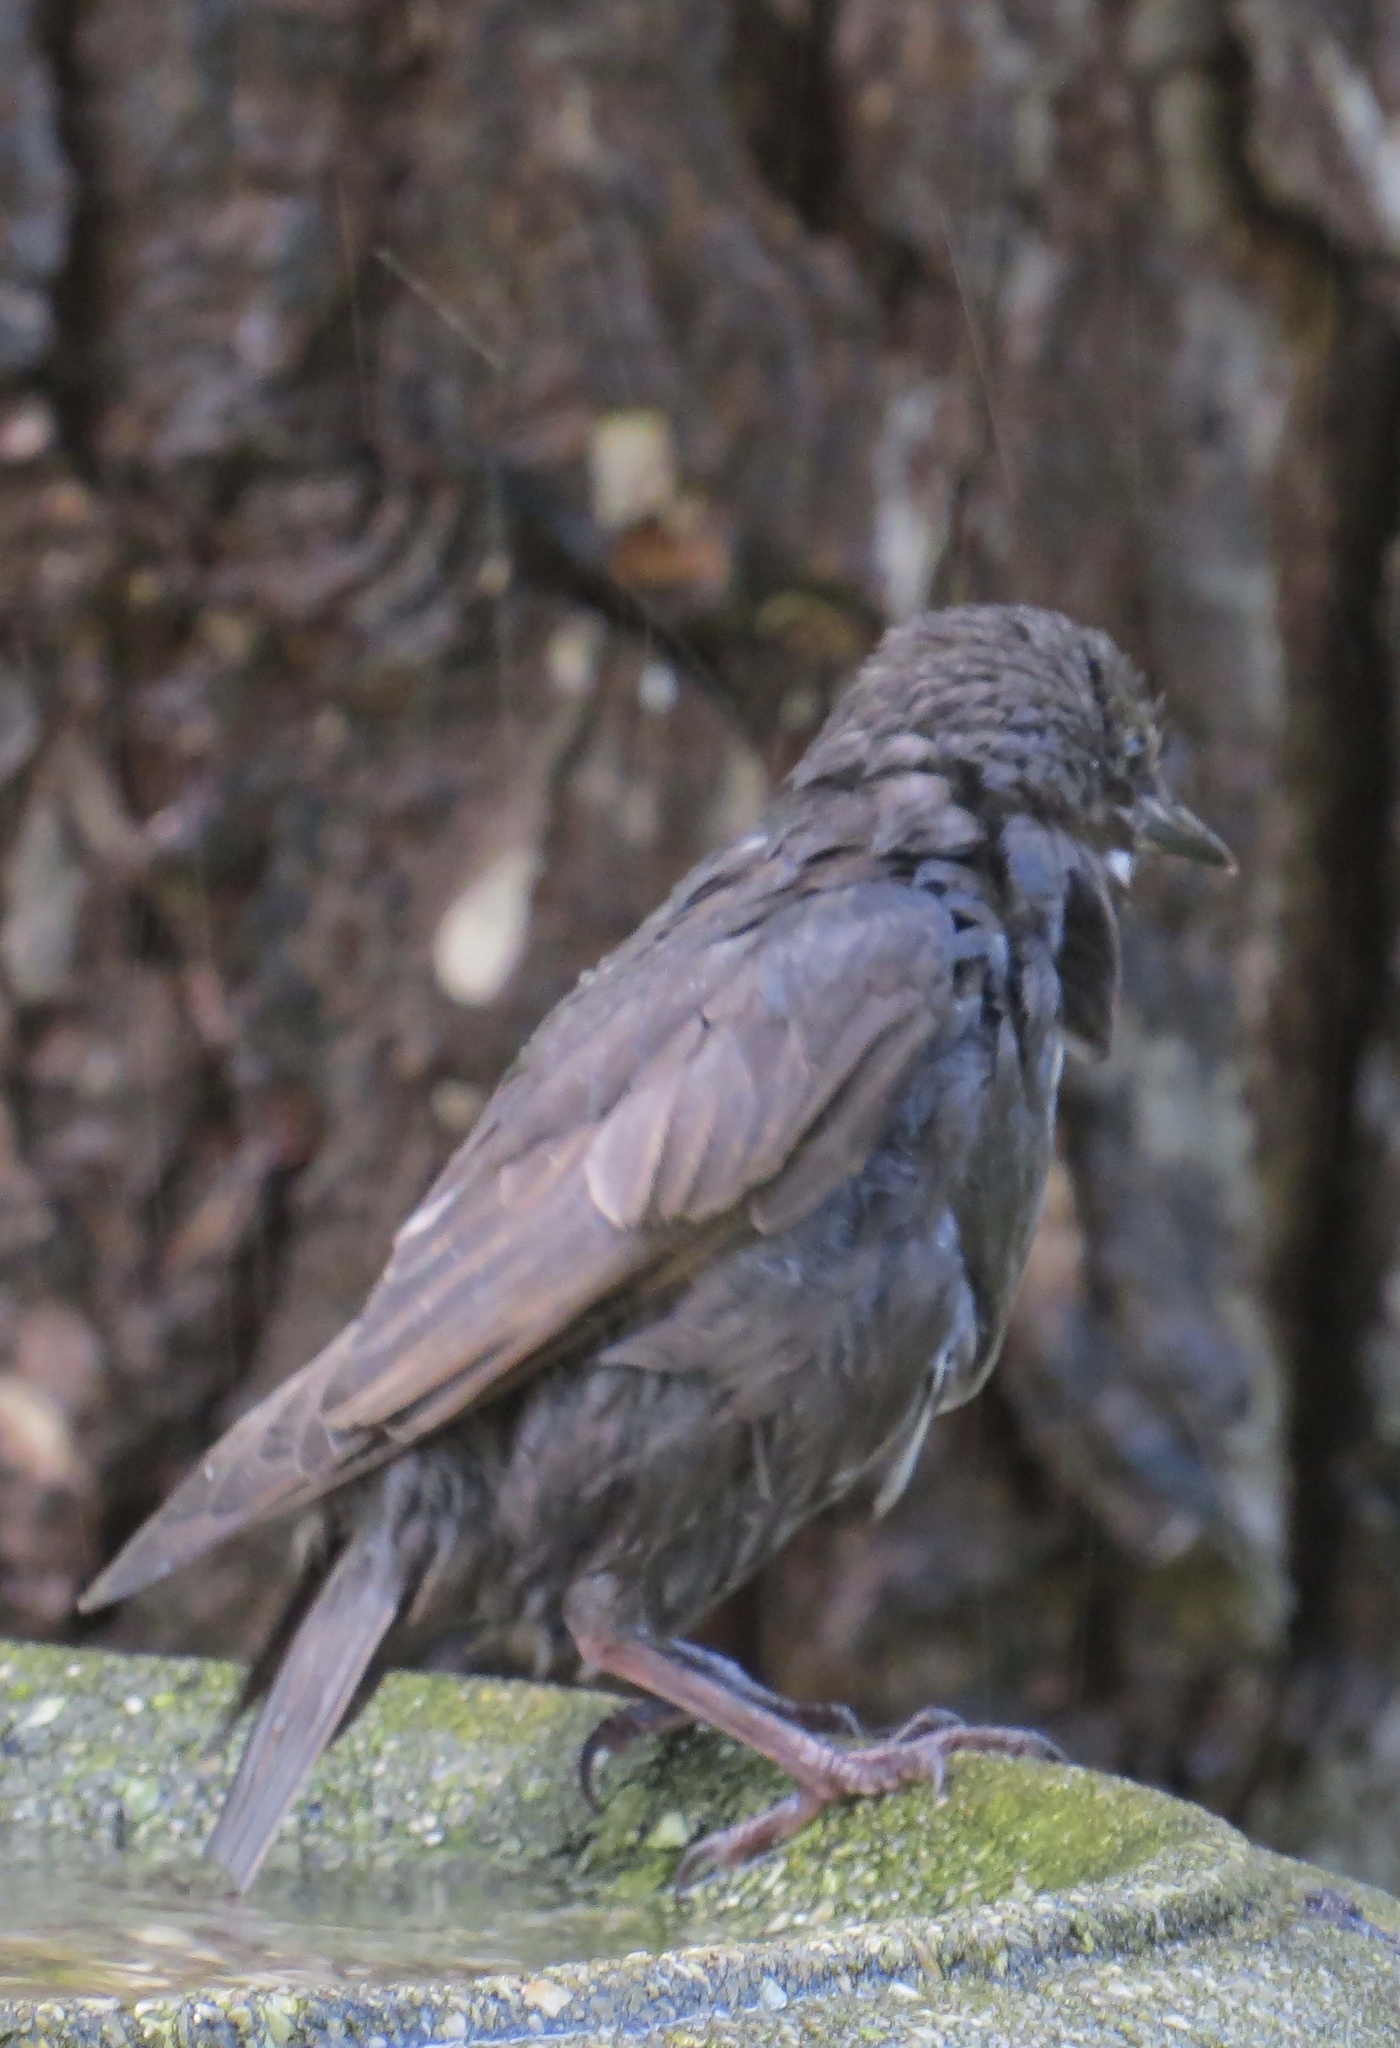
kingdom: Animalia
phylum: Chordata
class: Aves
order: Passeriformes
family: Sturnidae
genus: Sturnus
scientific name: Sturnus vulgaris
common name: Common starling
